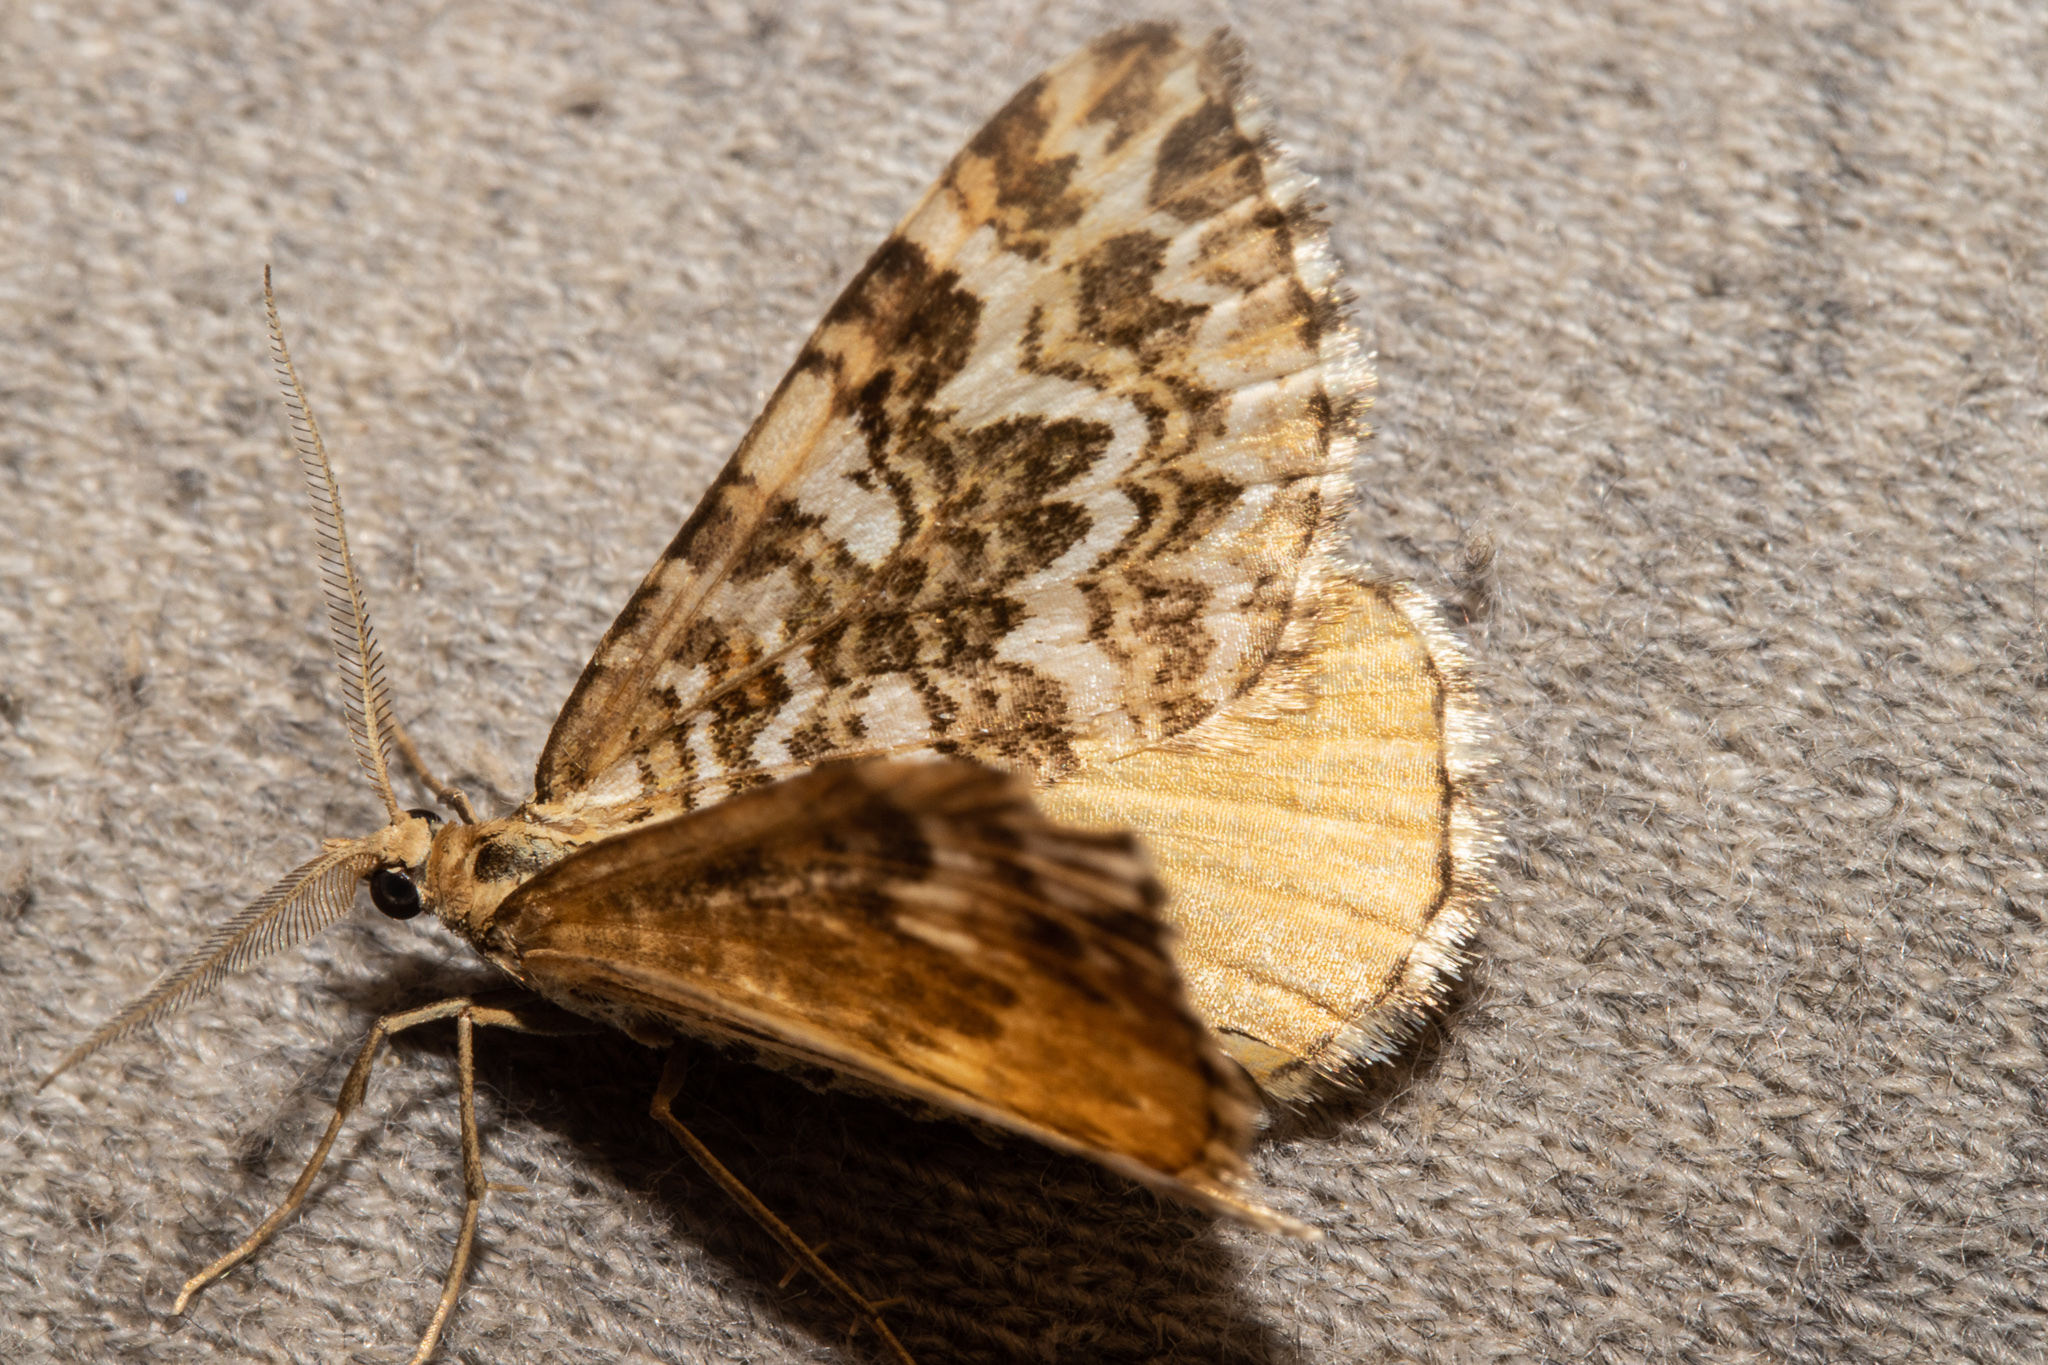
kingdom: Animalia
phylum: Arthropoda
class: Insecta
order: Lepidoptera
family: Geometridae
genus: Asaphodes
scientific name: Asaphodes clarata
